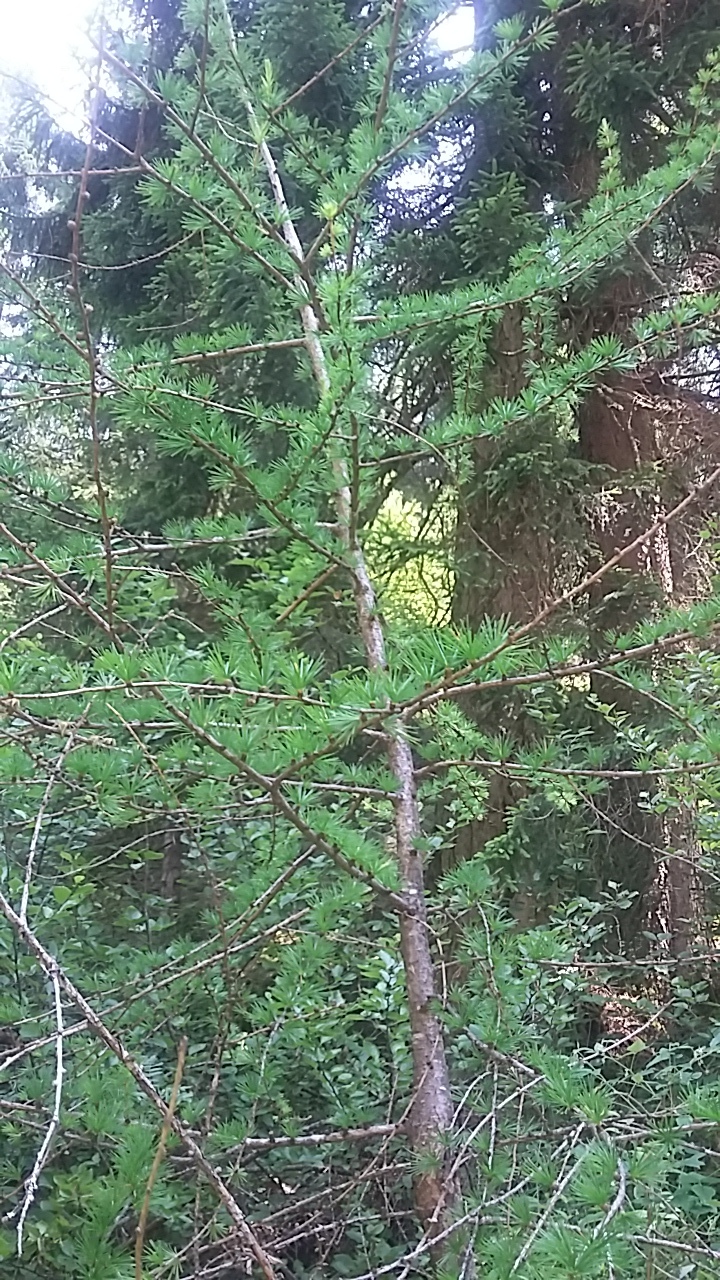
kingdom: Plantae
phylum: Tracheophyta
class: Pinopsida
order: Pinales
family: Pinaceae
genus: Larix
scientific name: Larix decidua
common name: European larch
